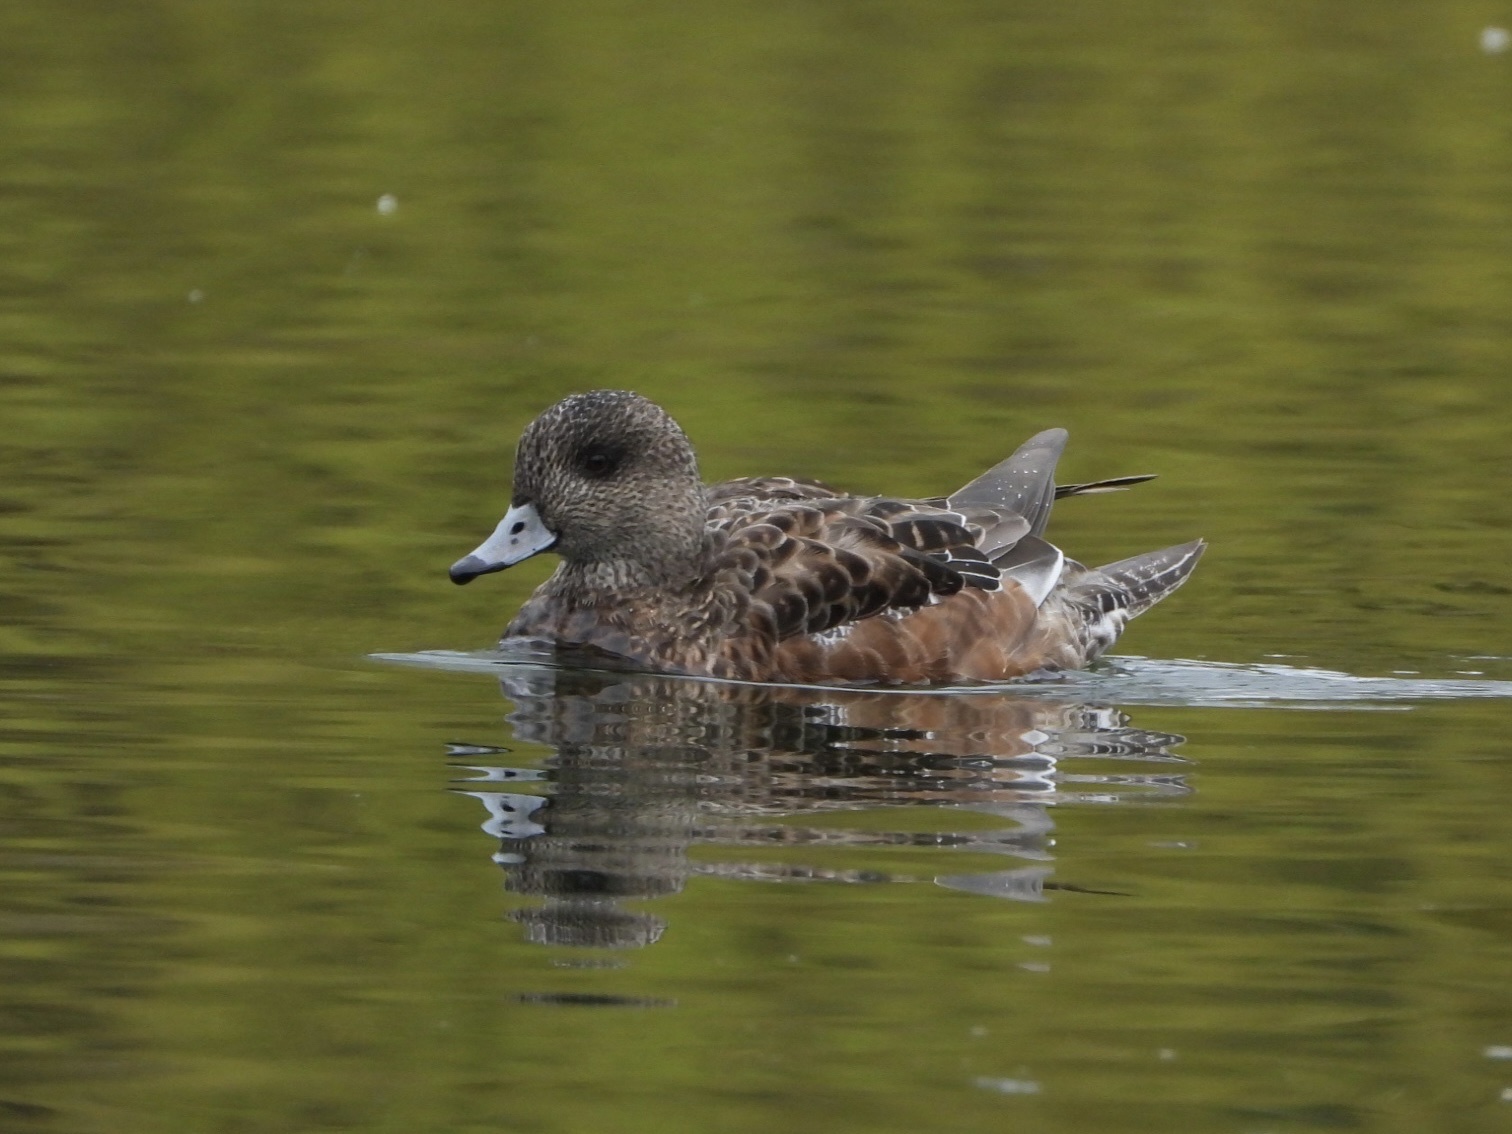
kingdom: Animalia
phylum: Chordata
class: Aves
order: Anseriformes
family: Anatidae
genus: Mareca
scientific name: Mareca americana
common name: American wigeon
